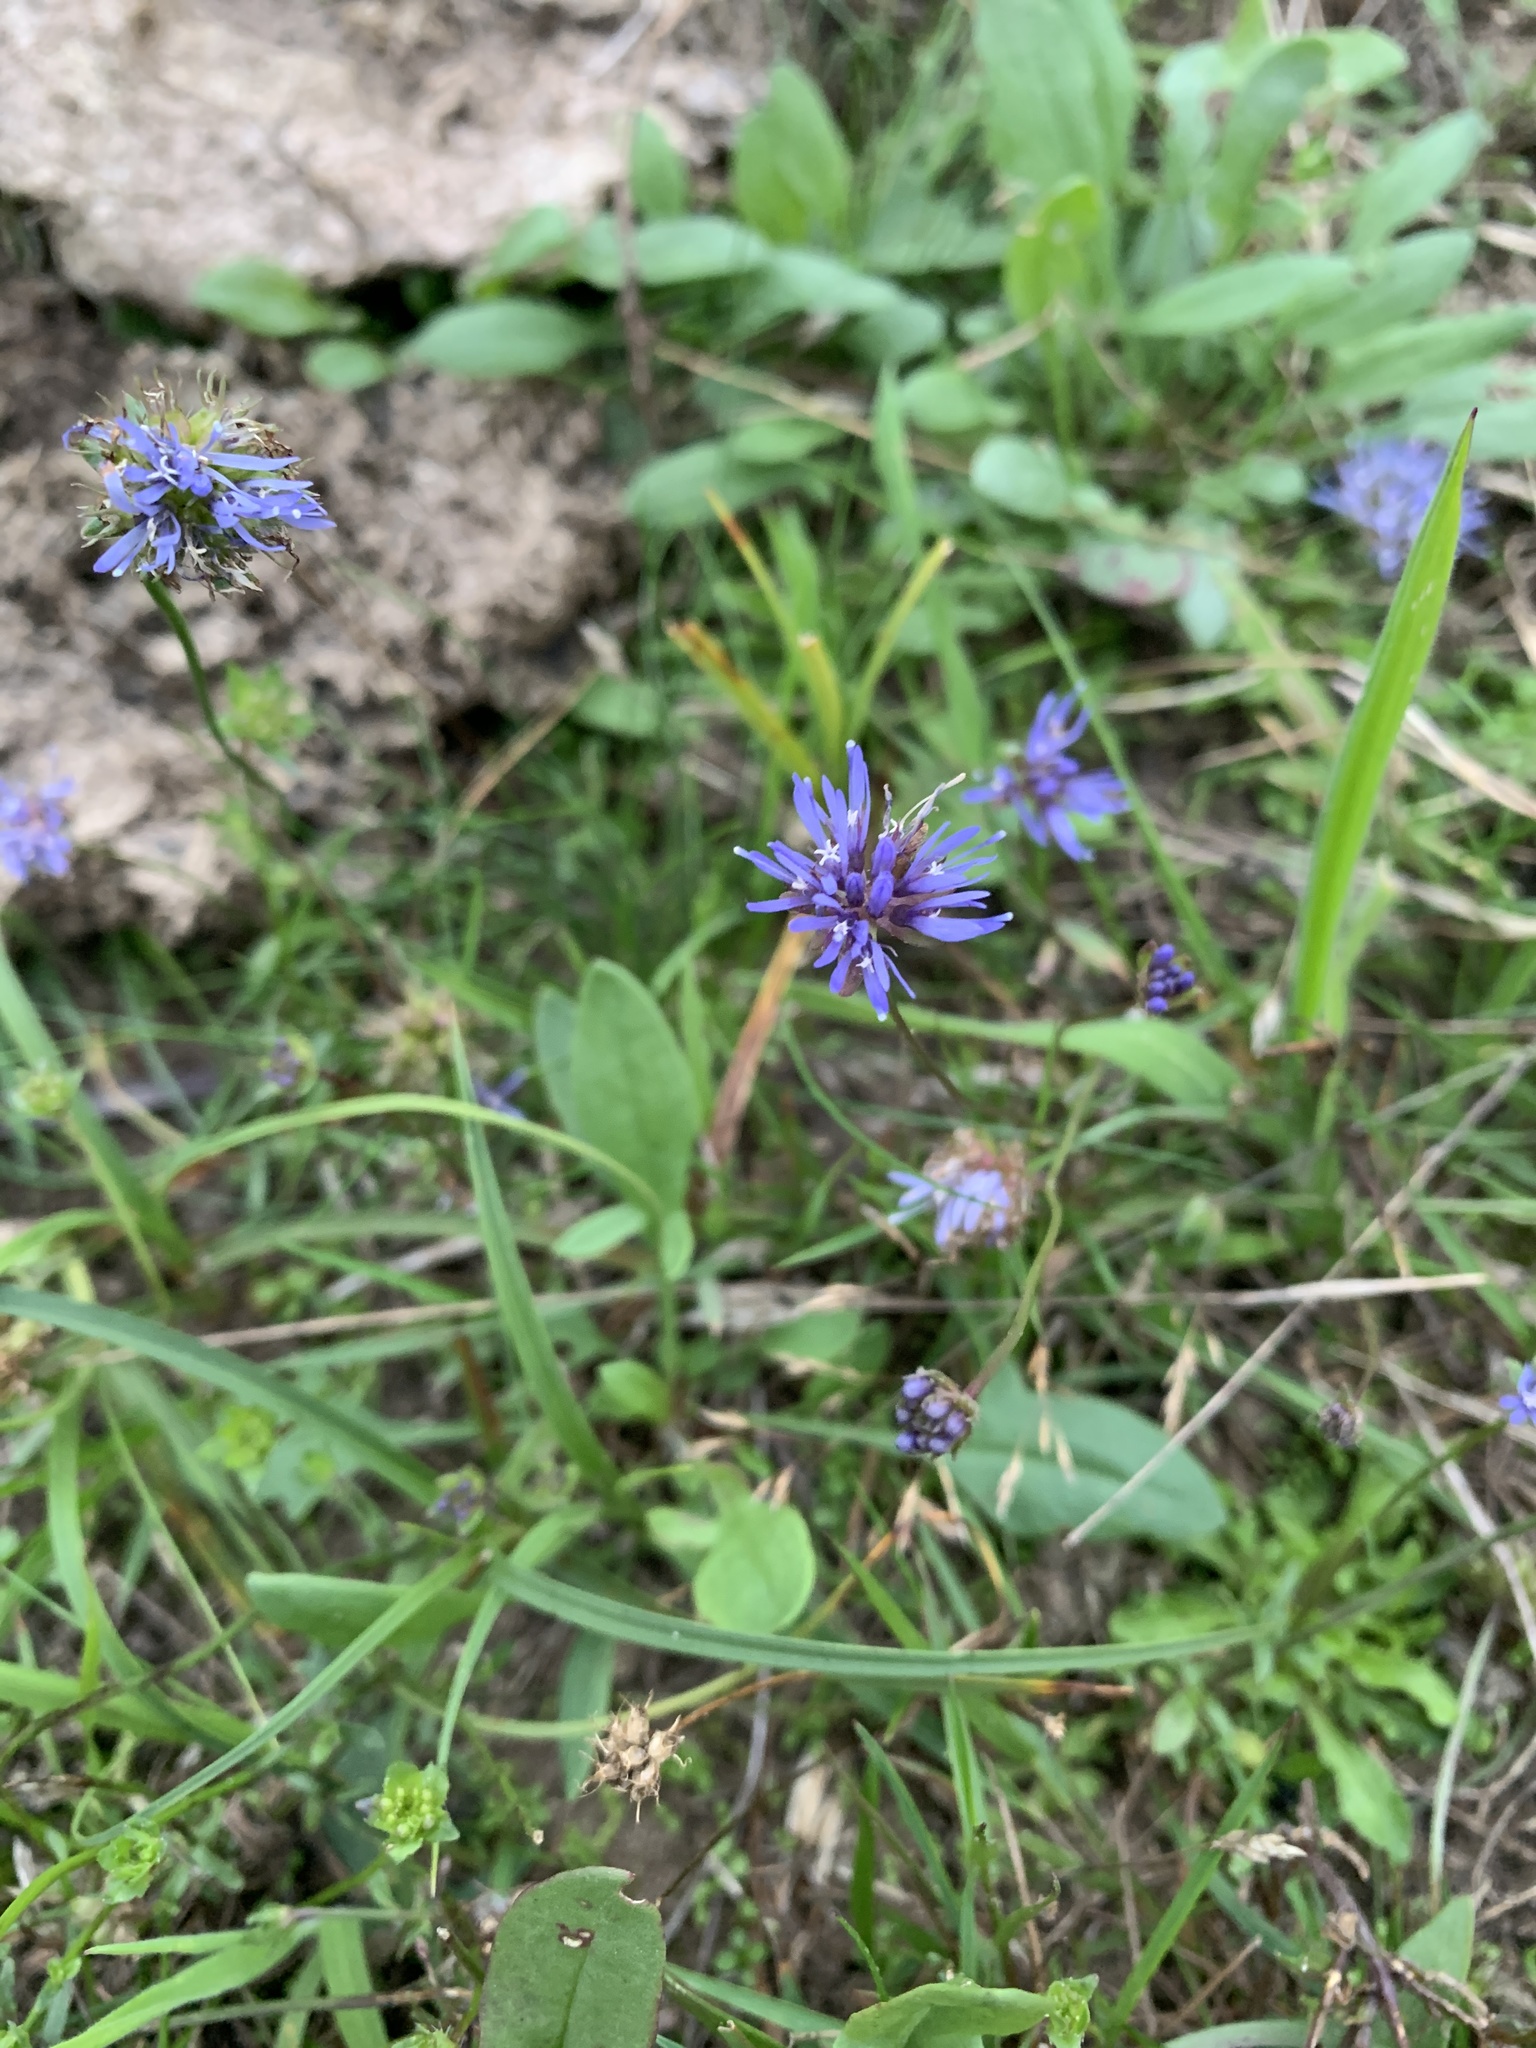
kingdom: Plantae
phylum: Tracheophyta
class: Magnoliopsida
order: Asterales
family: Campanulaceae
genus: Jasione
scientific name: Jasione montana
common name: Sheep's-bit
